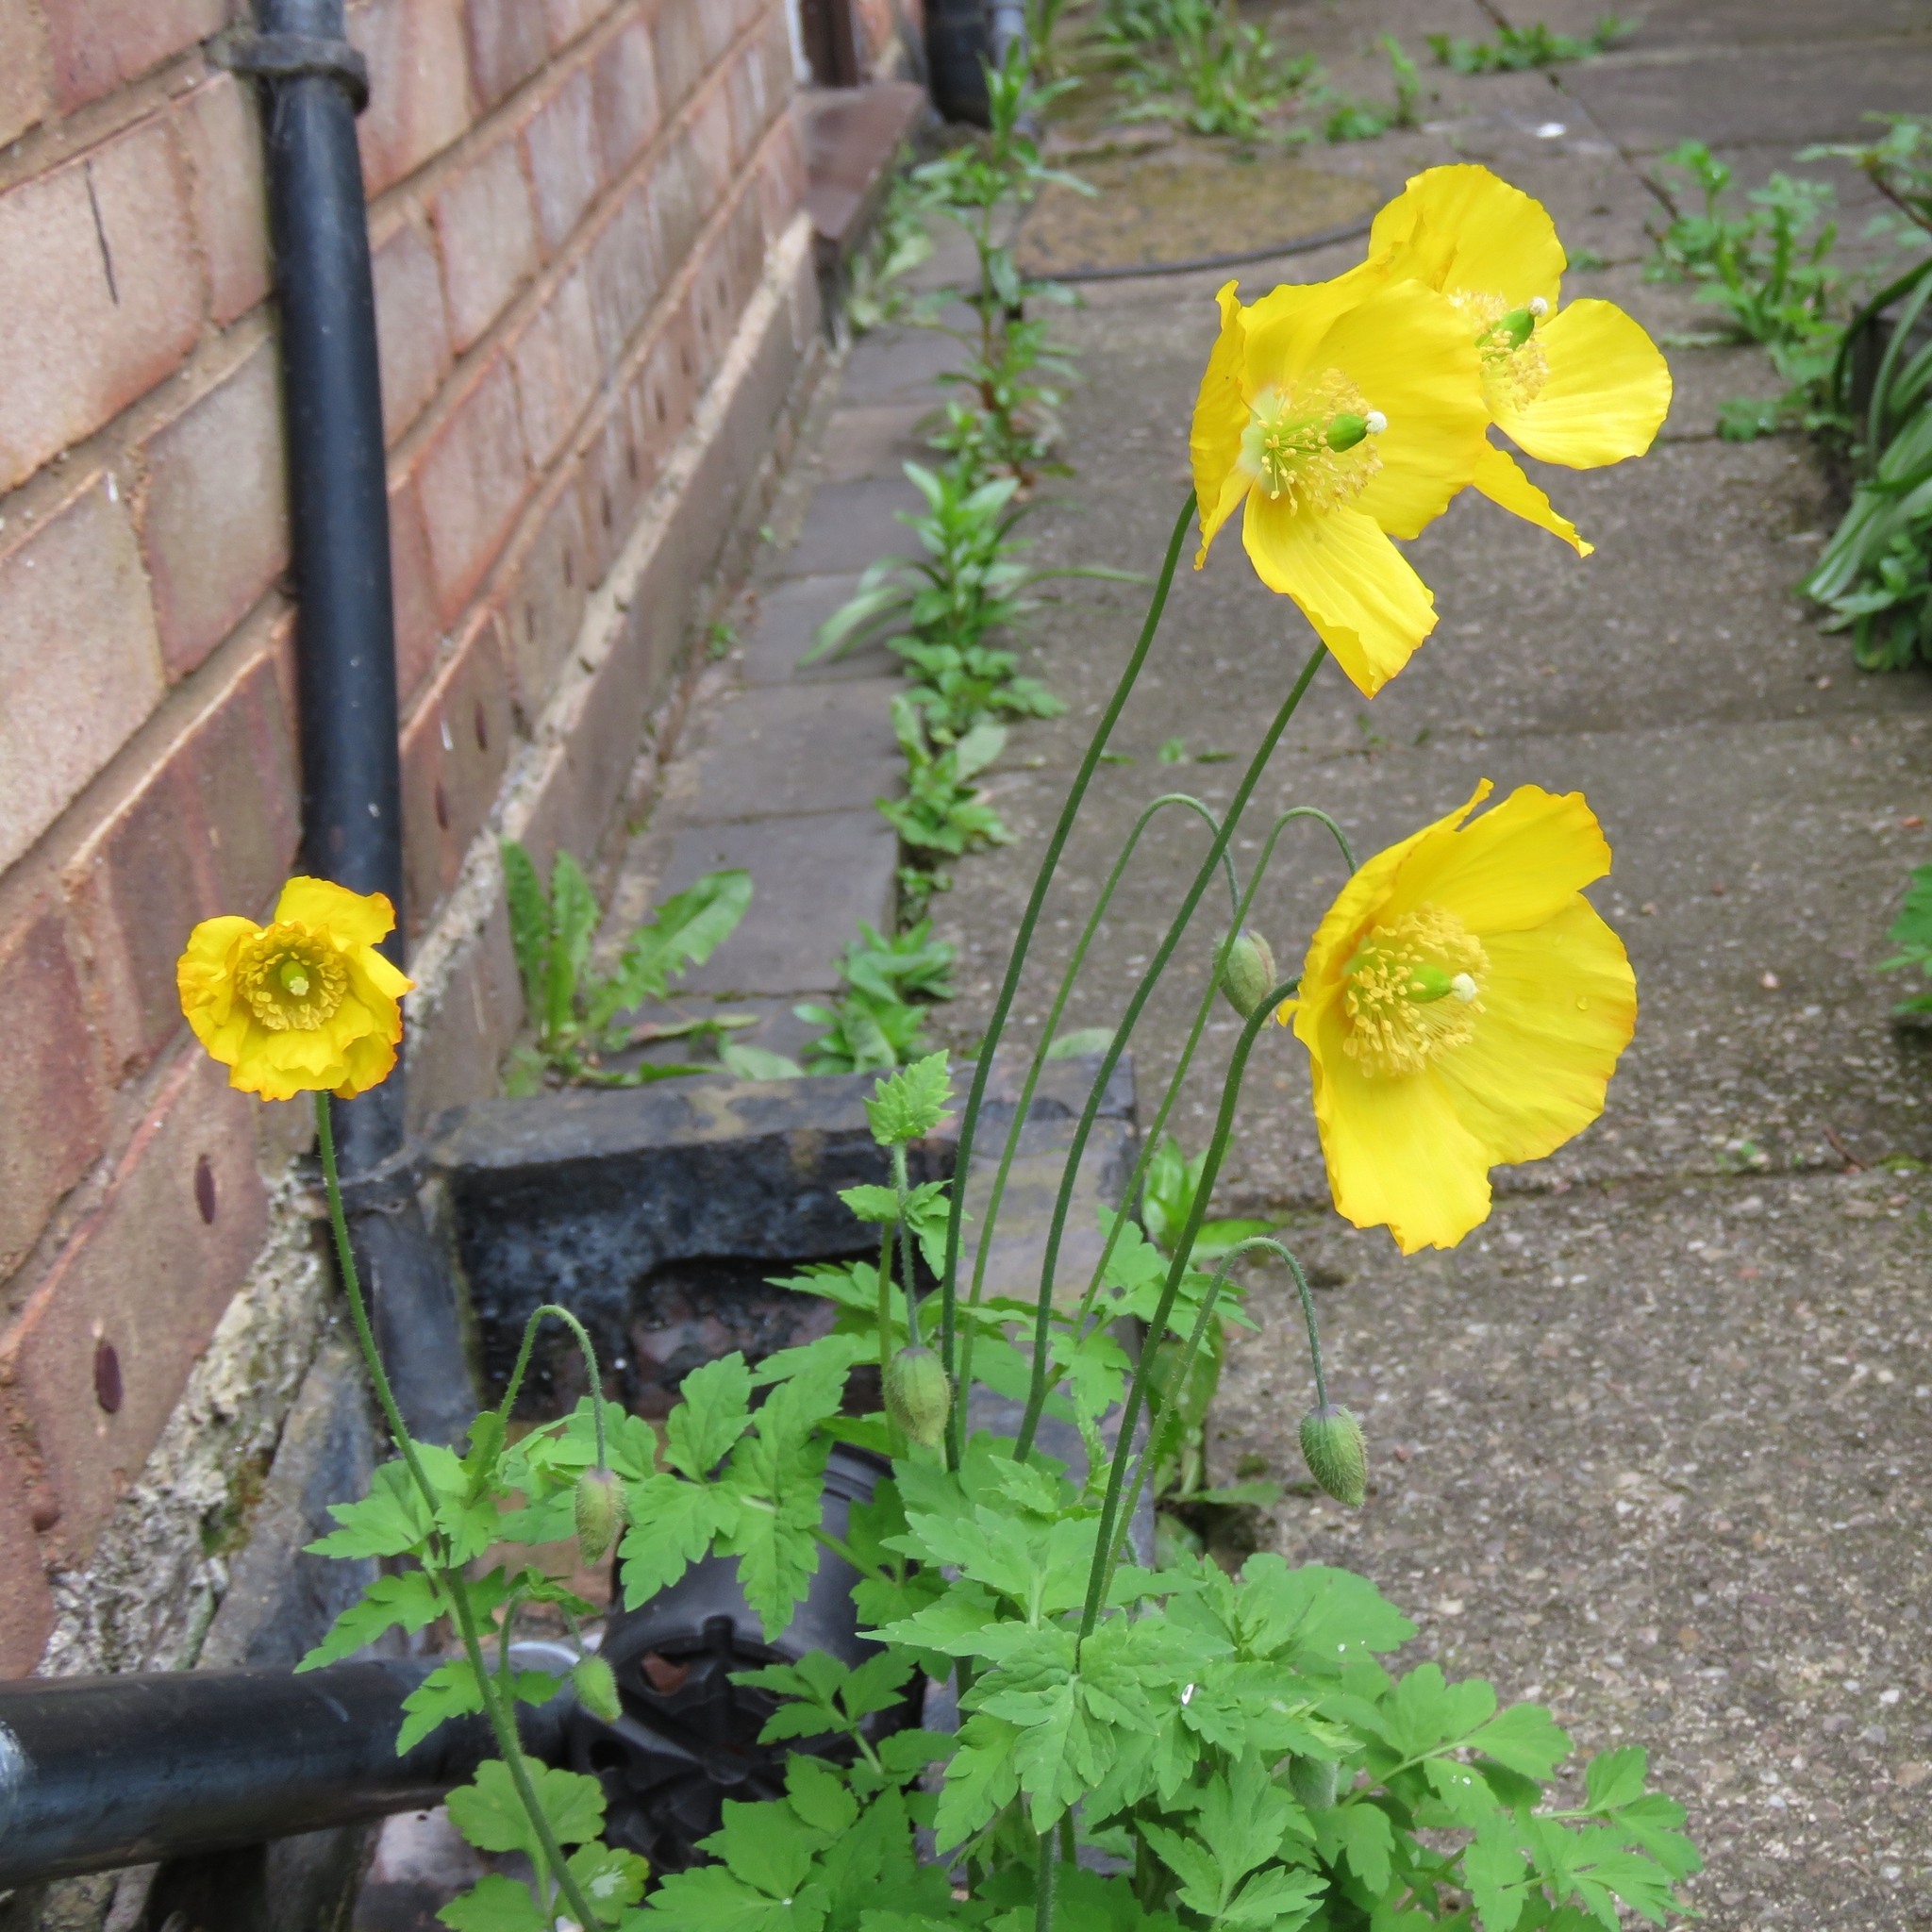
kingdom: Plantae
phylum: Tracheophyta
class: Magnoliopsida
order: Ranunculales
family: Papaveraceae
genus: Papaver
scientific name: Papaver cambricum
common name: Poppy
